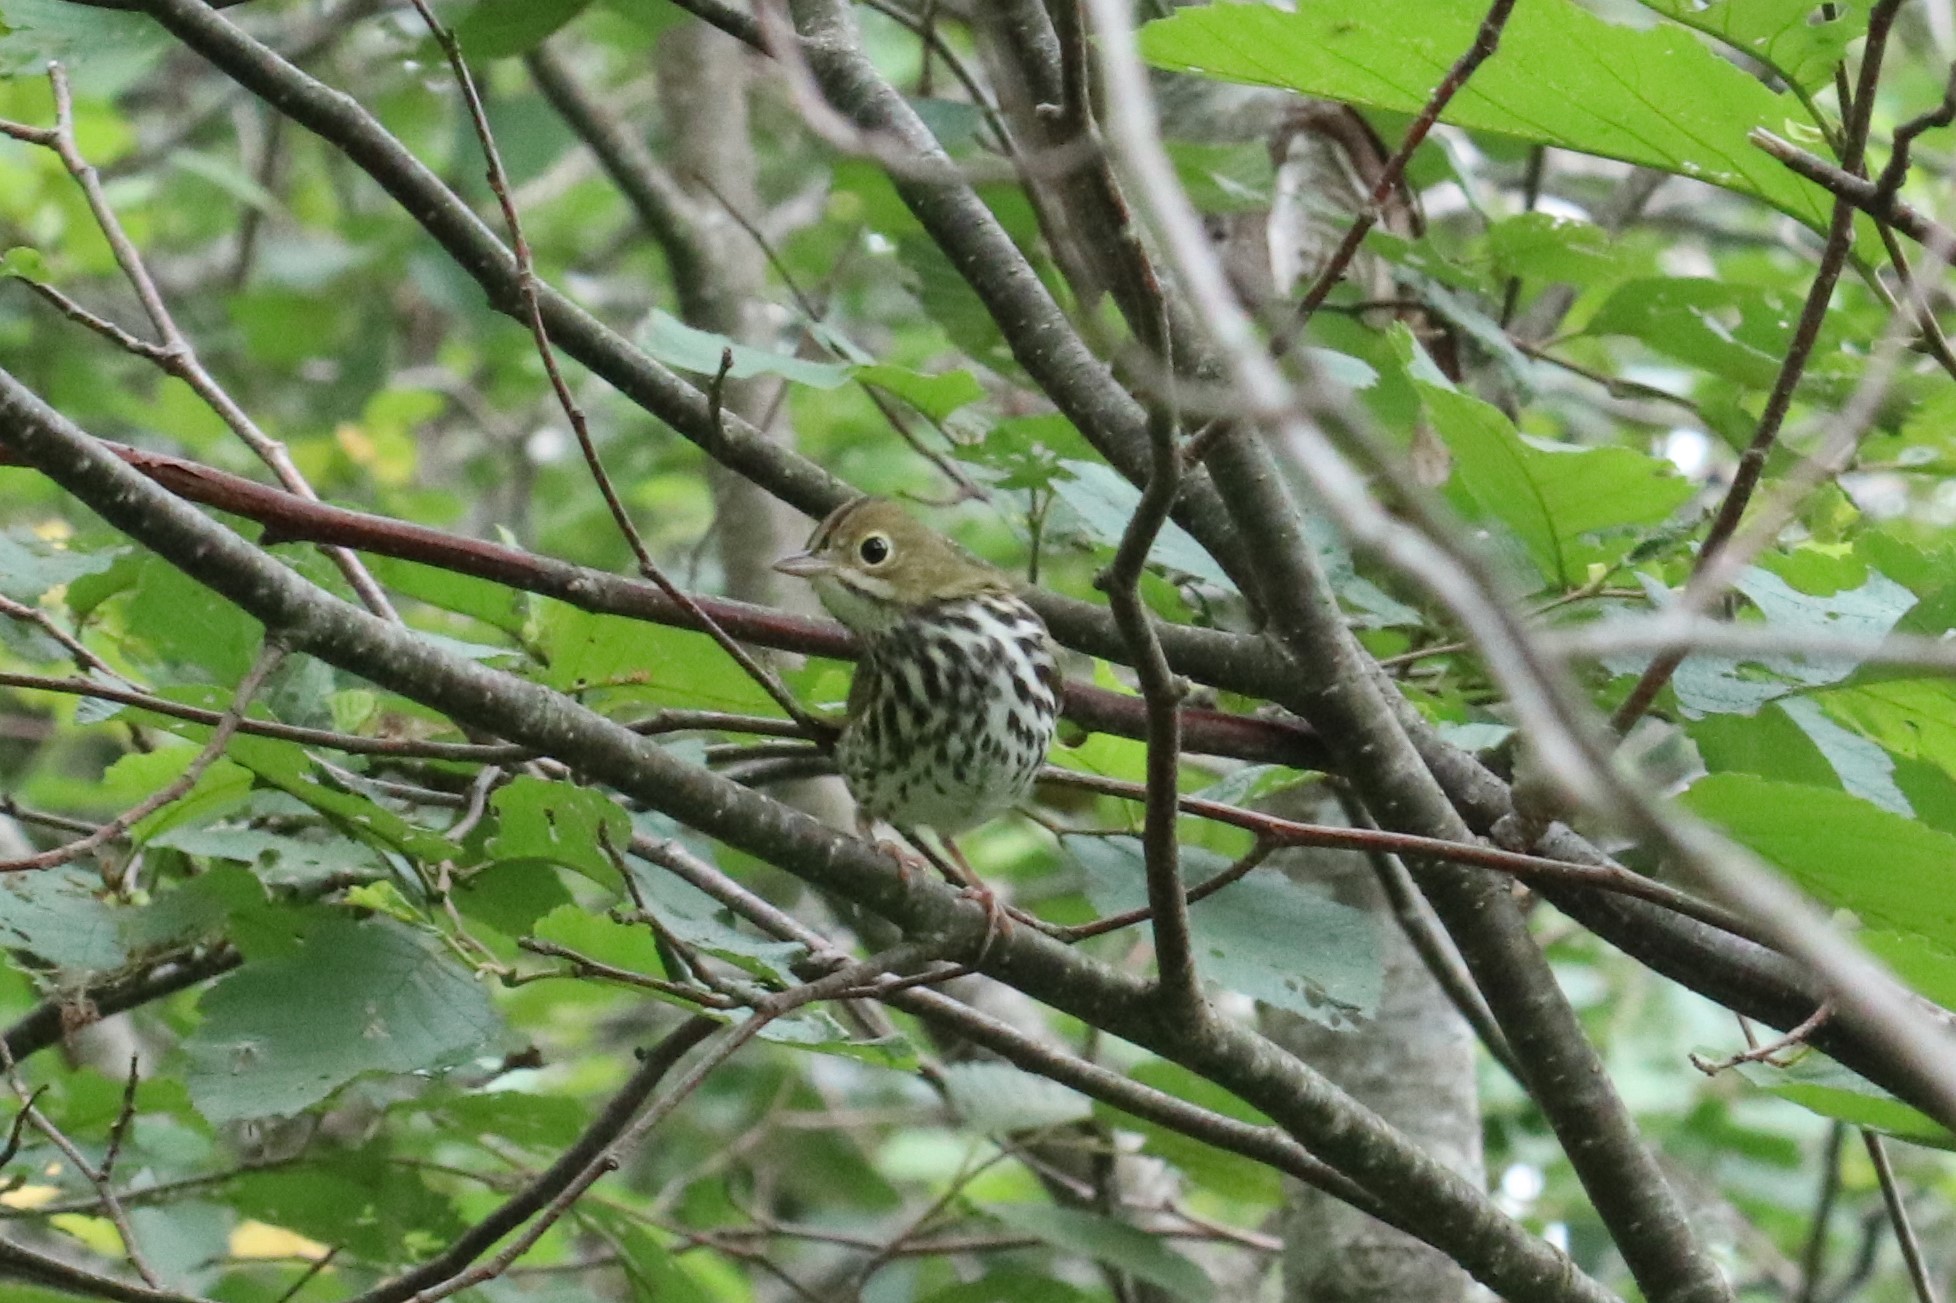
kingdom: Animalia
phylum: Chordata
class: Aves
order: Passeriformes
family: Parulidae
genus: Seiurus
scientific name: Seiurus aurocapilla
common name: Ovenbird
